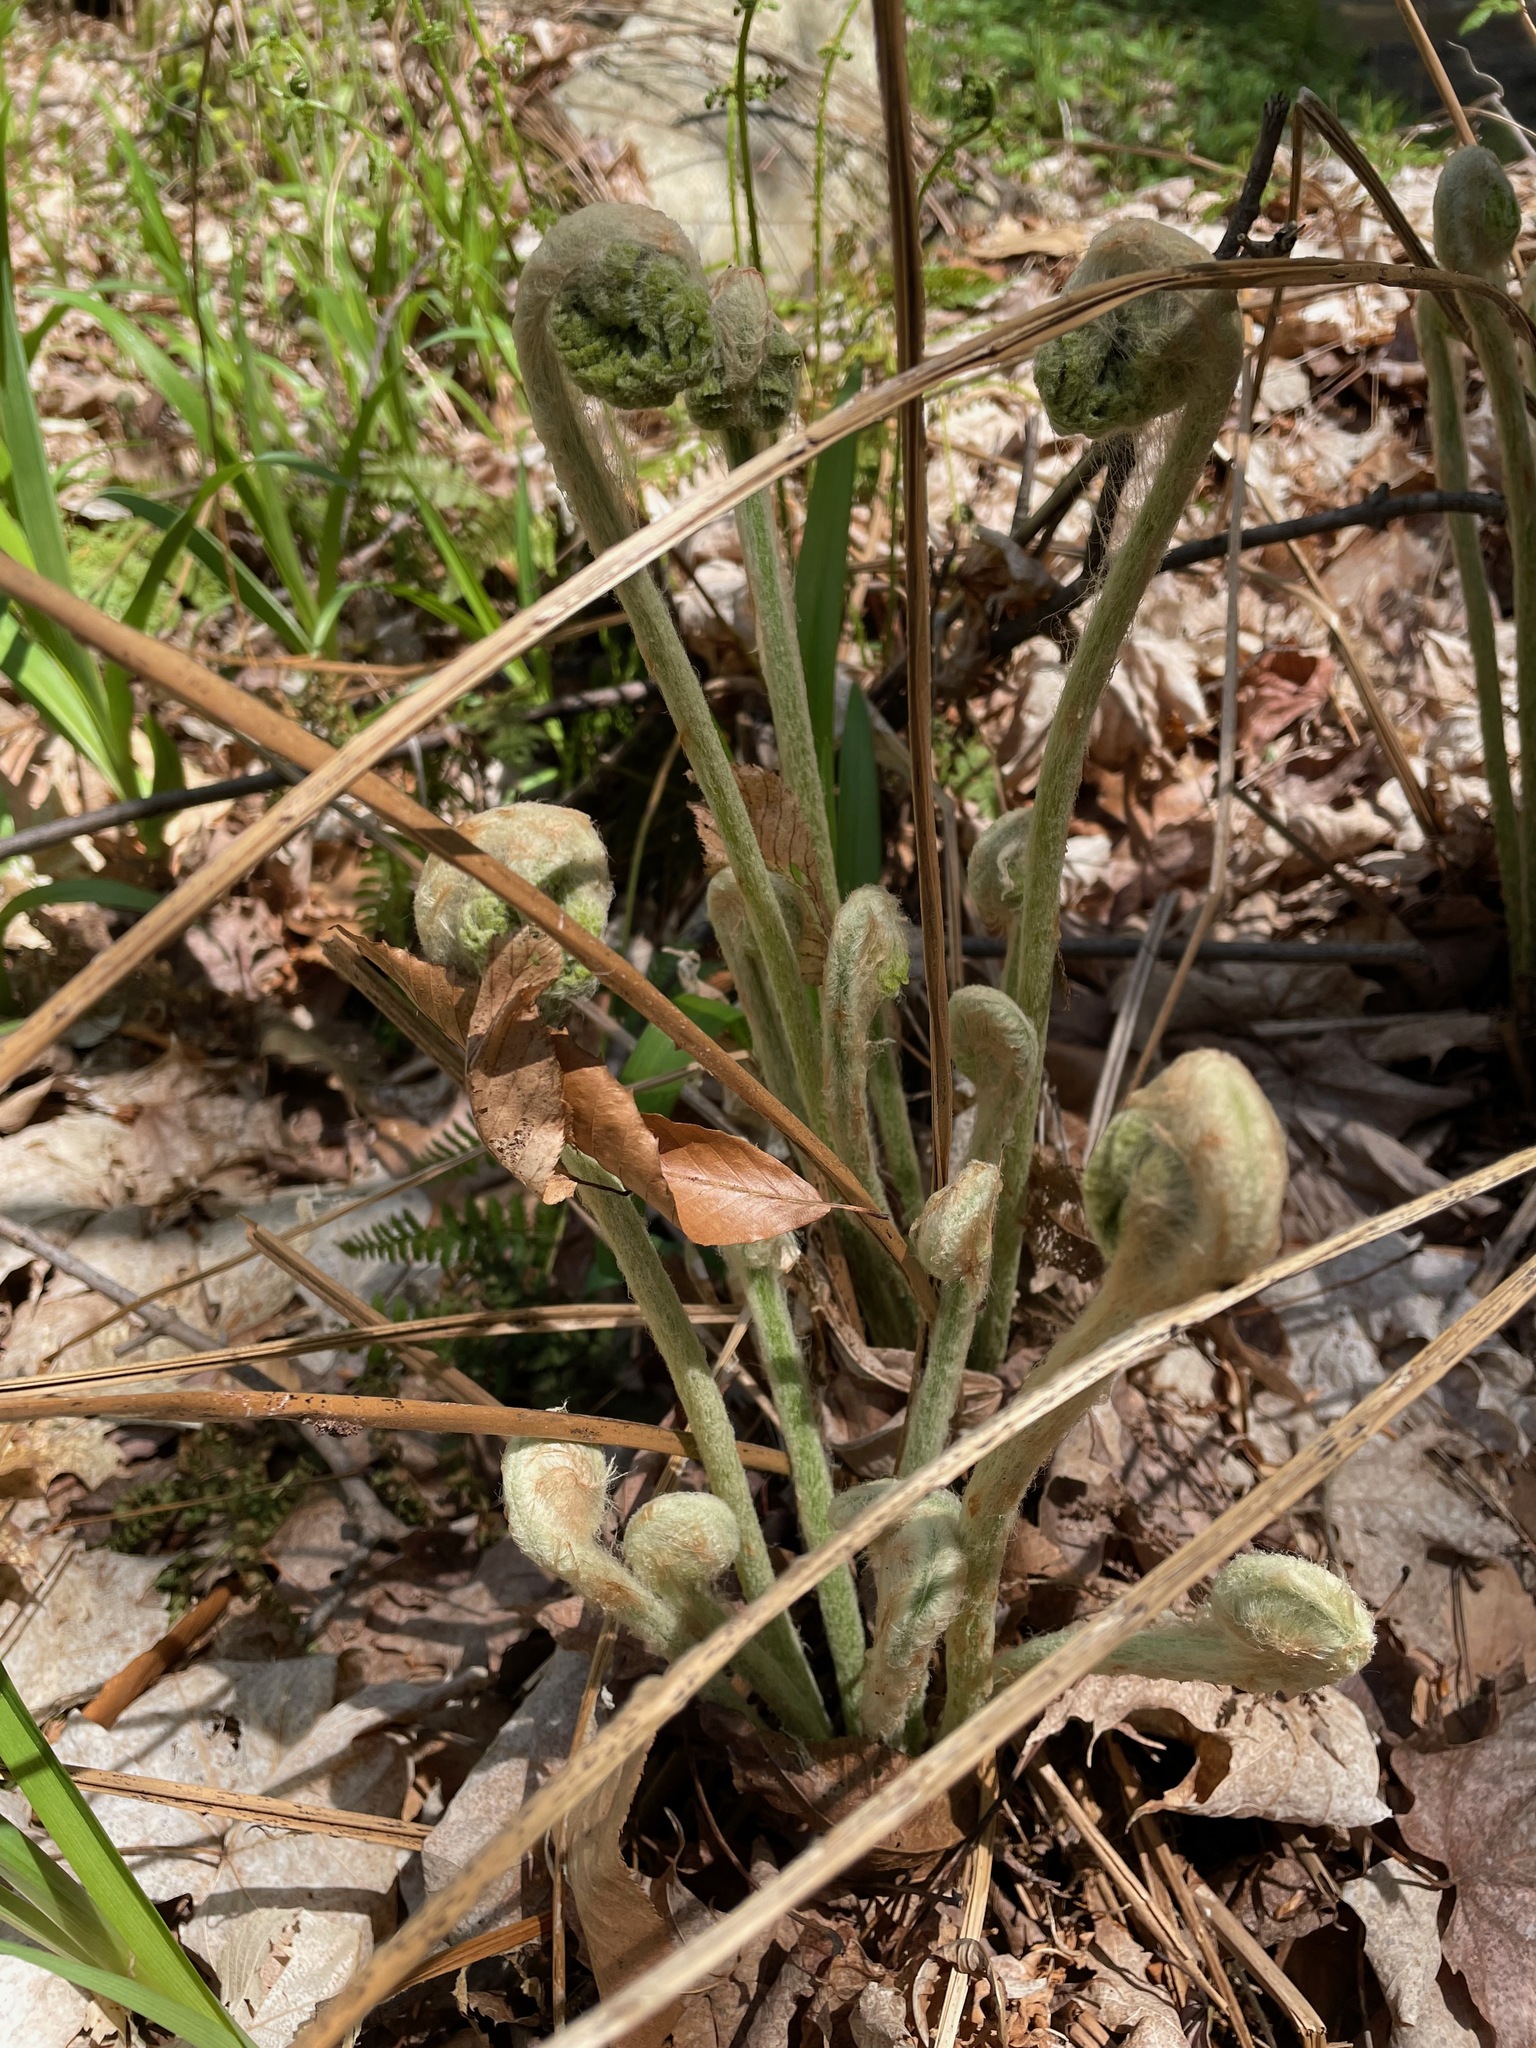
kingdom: Plantae
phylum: Tracheophyta
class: Polypodiopsida
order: Osmundales
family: Osmundaceae
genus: Osmundastrum
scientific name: Osmundastrum cinnamomeum
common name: Cinnamon fern
